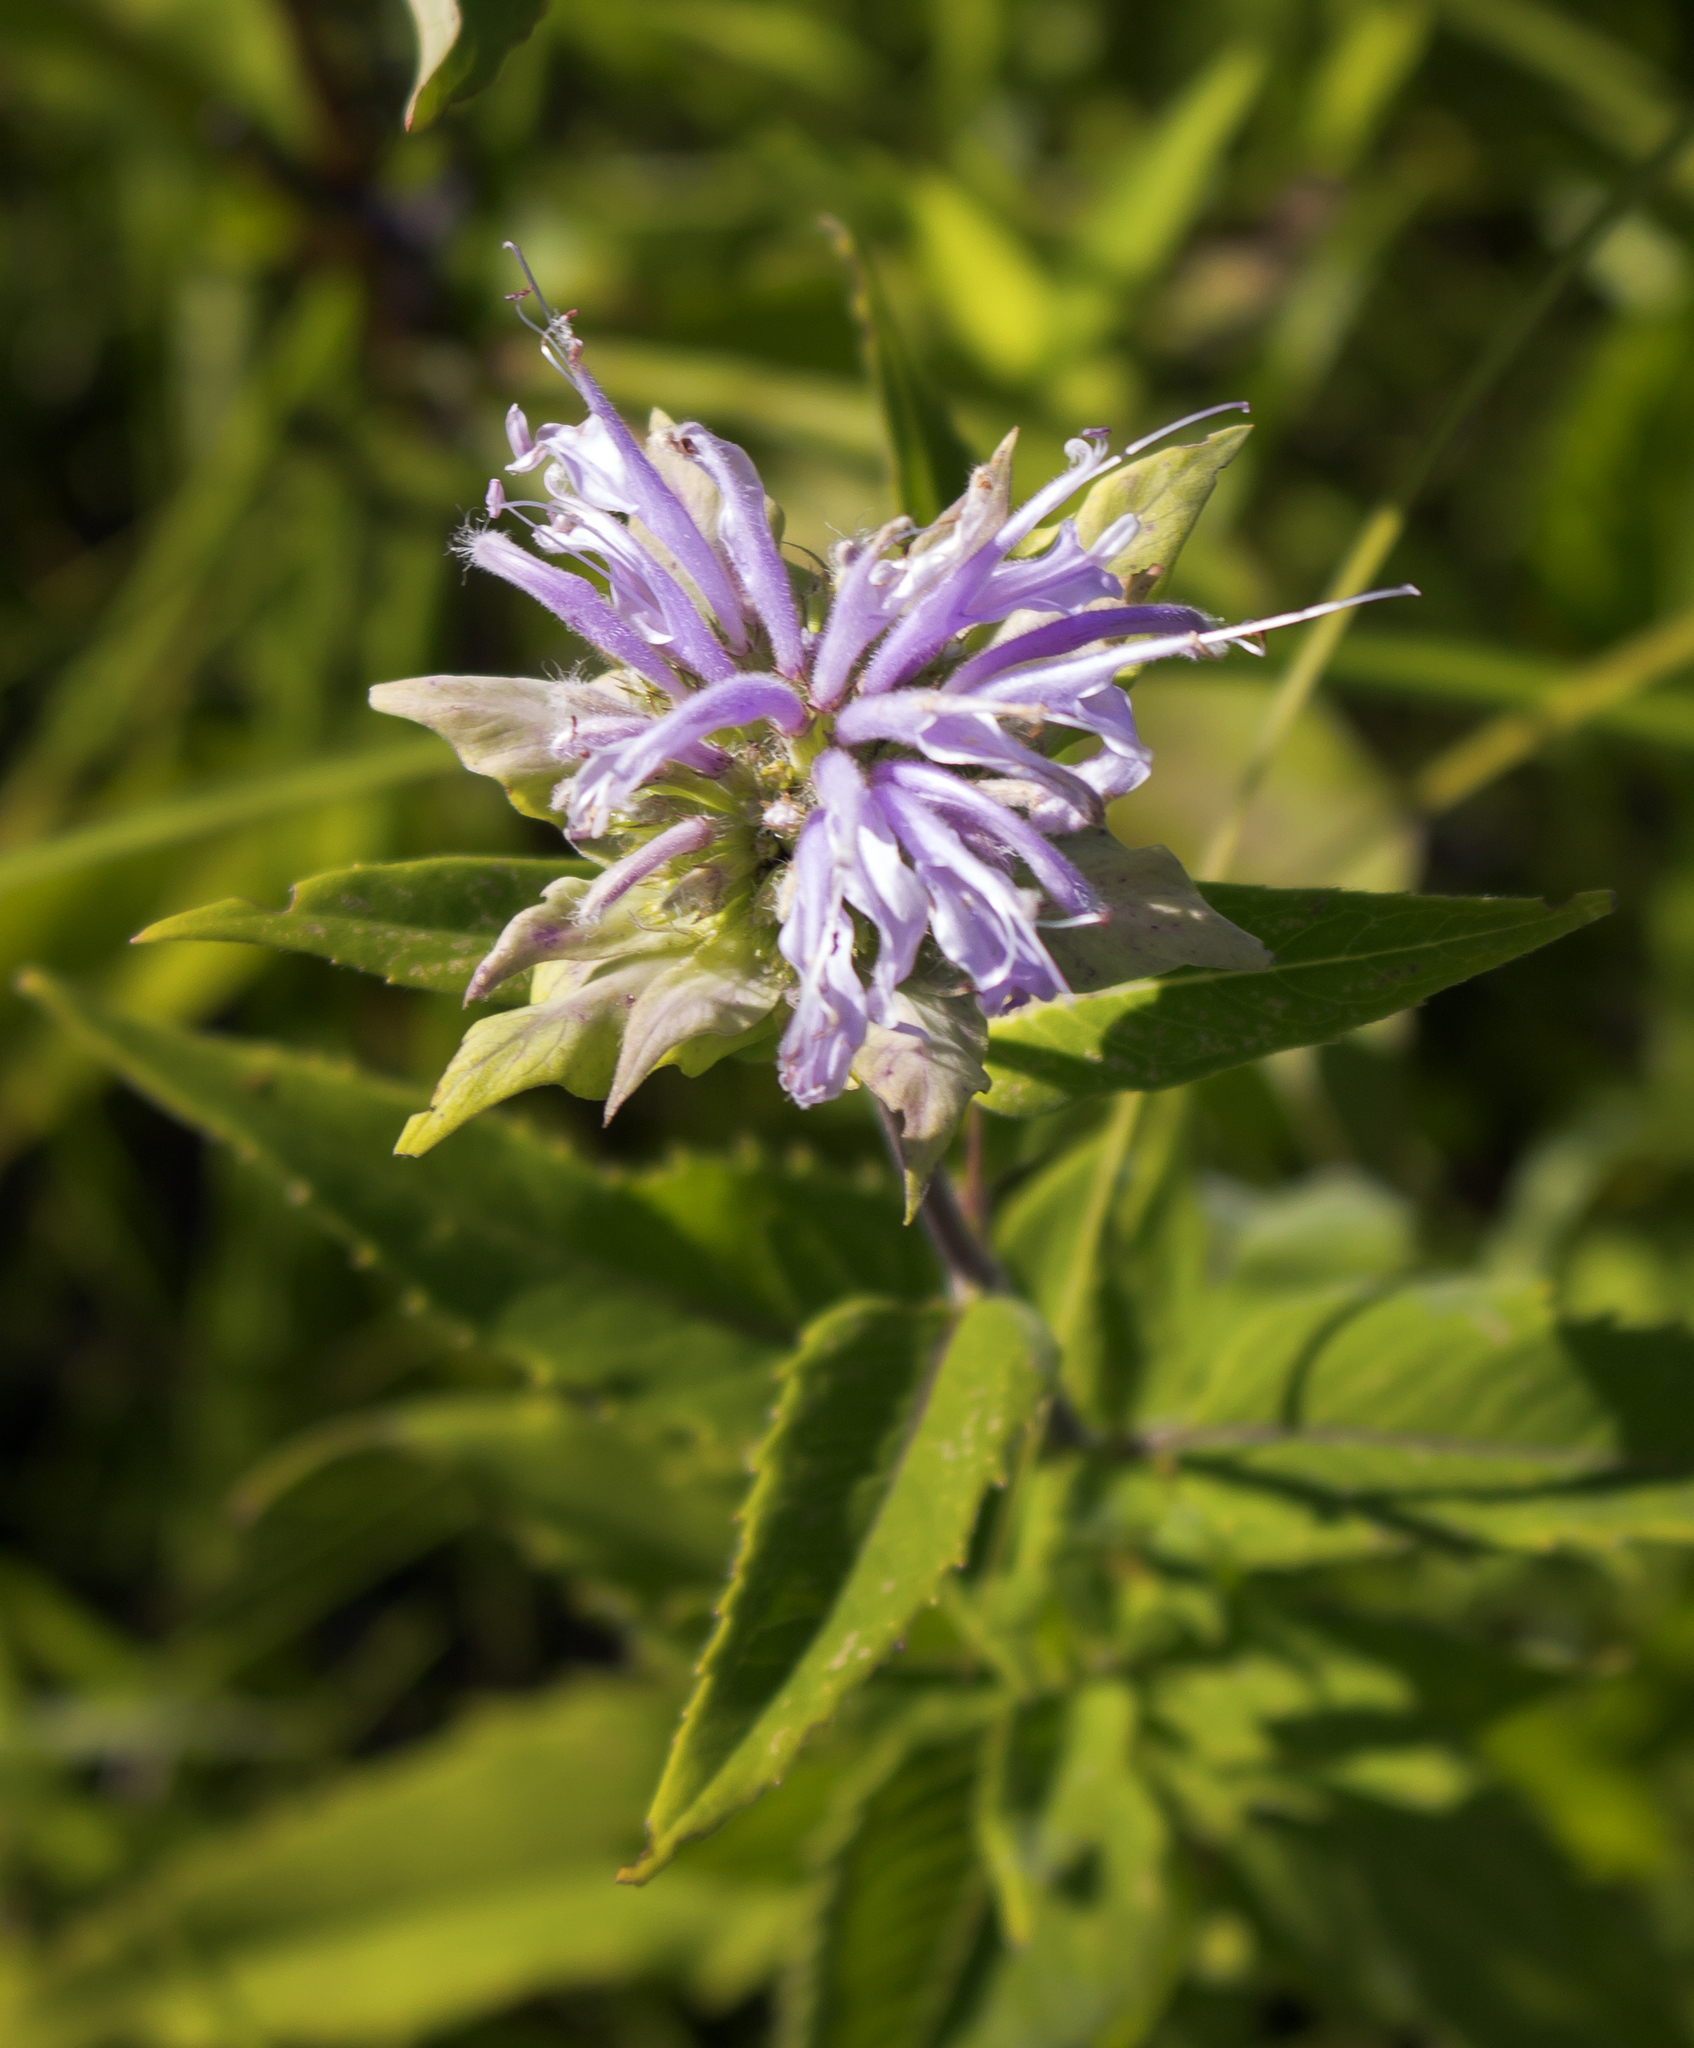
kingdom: Plantae
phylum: Tracheophyta
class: Magnoliopsida
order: Lamiales
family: Lamiaceae
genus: Monarda
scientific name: Monarda fistulosa
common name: Purple beebalm
